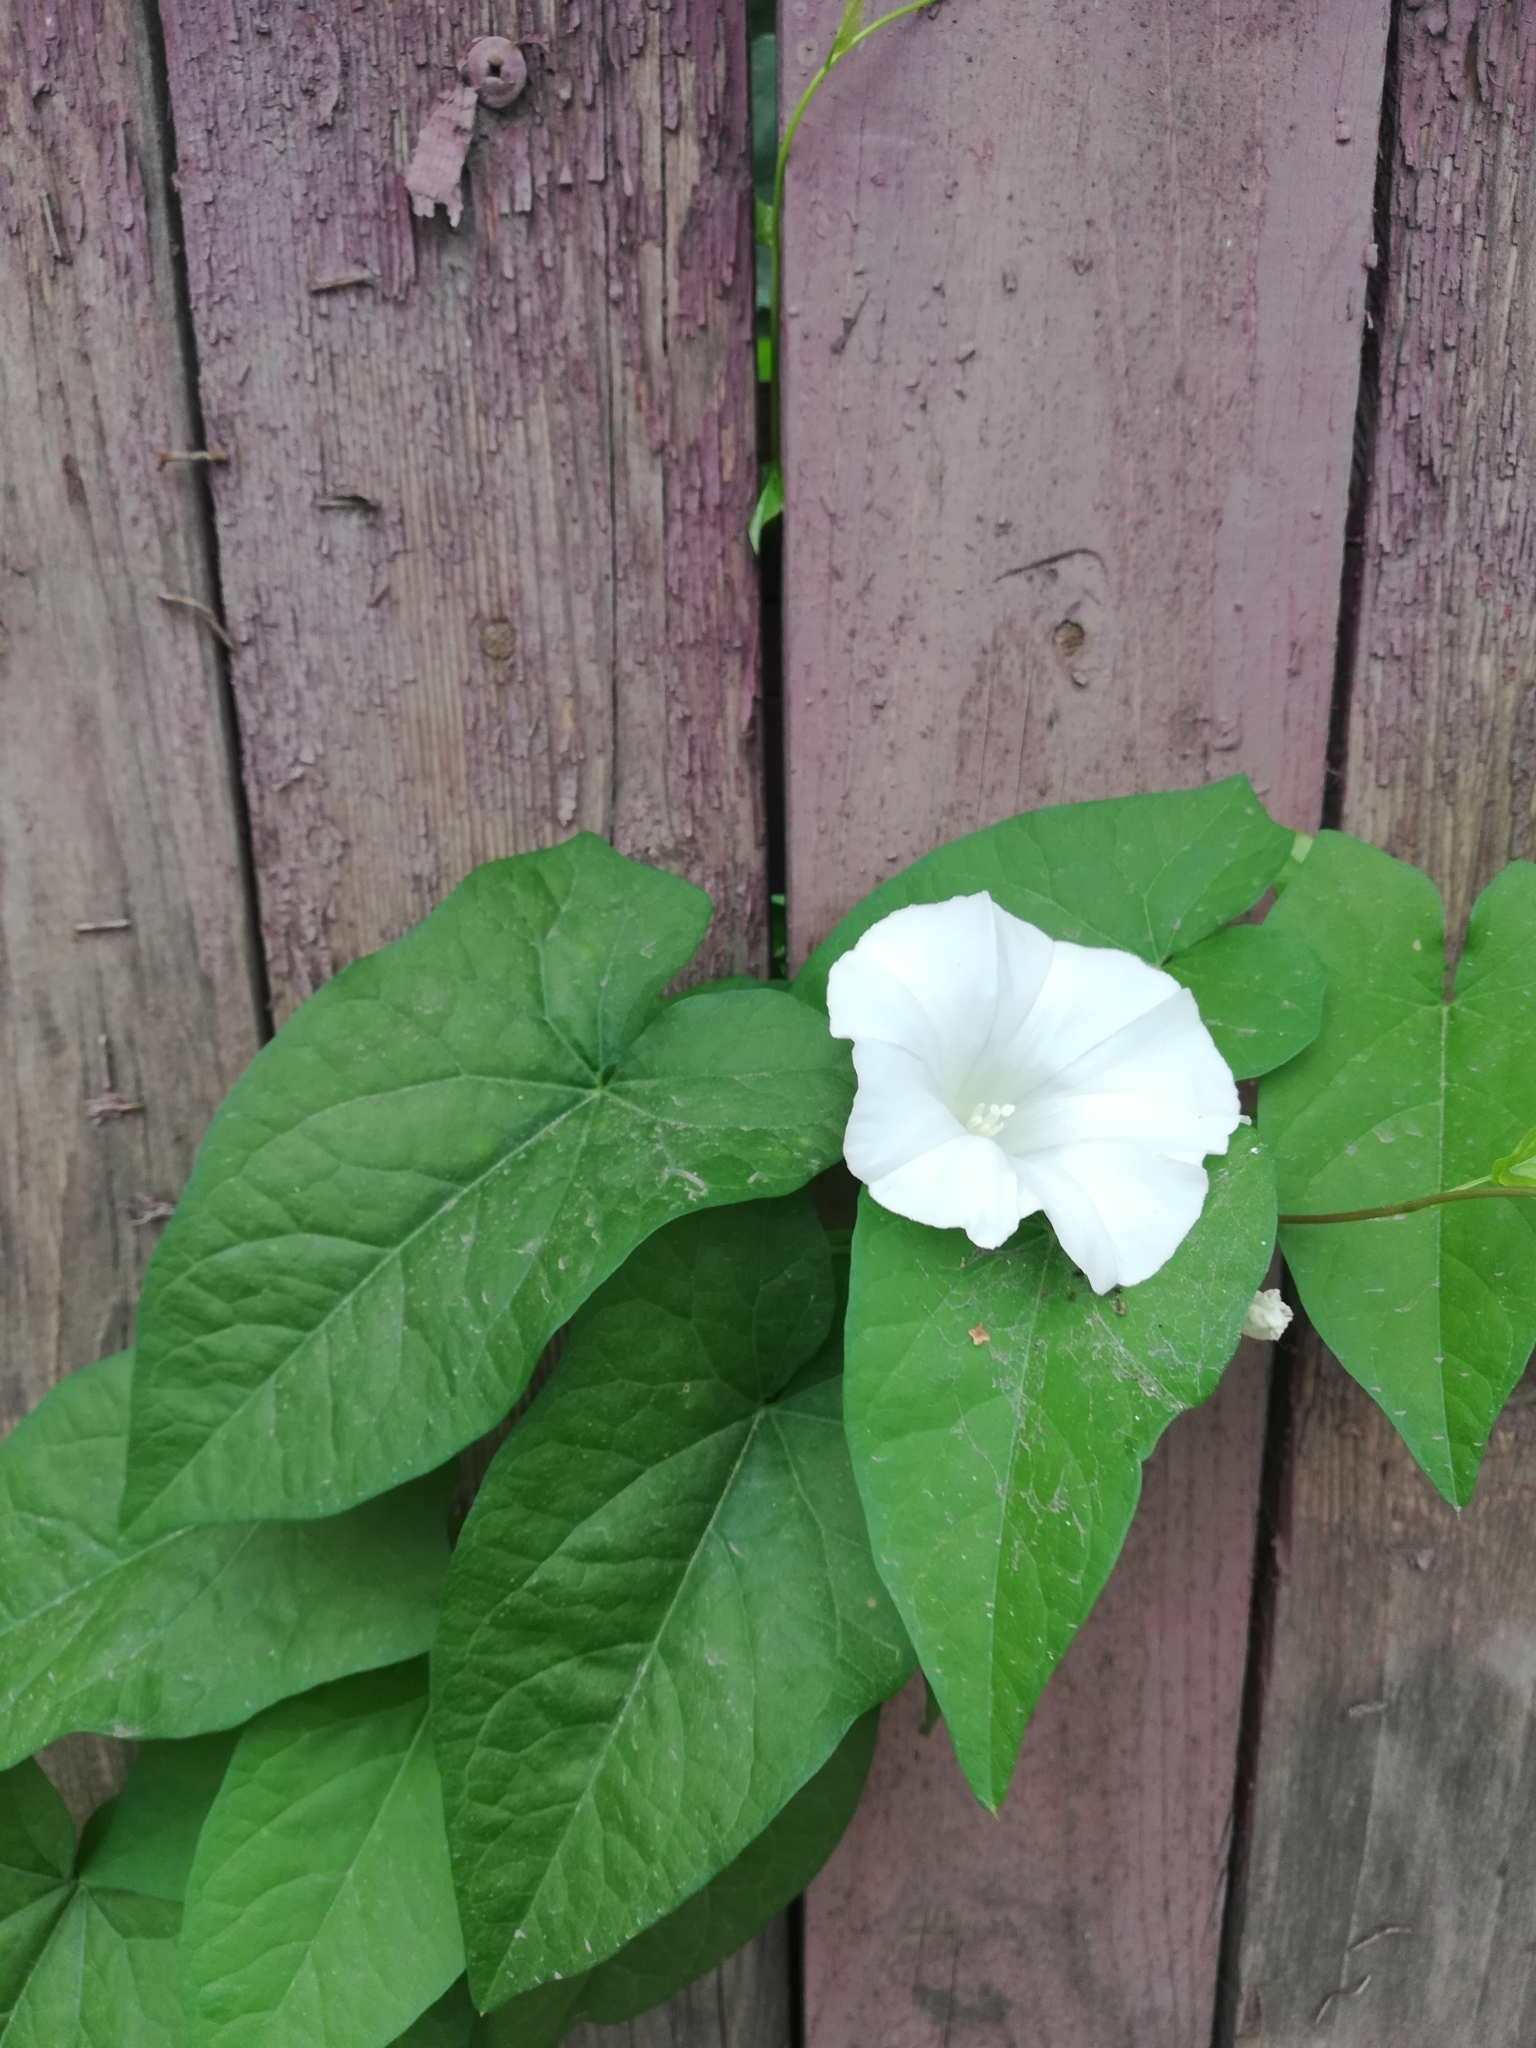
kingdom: Plantae
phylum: Tracheophyta
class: Magnoliopsida
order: Solanales
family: Convolvulaceae
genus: Calystegia
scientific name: Calystegia sepium
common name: Hedge bindweed
